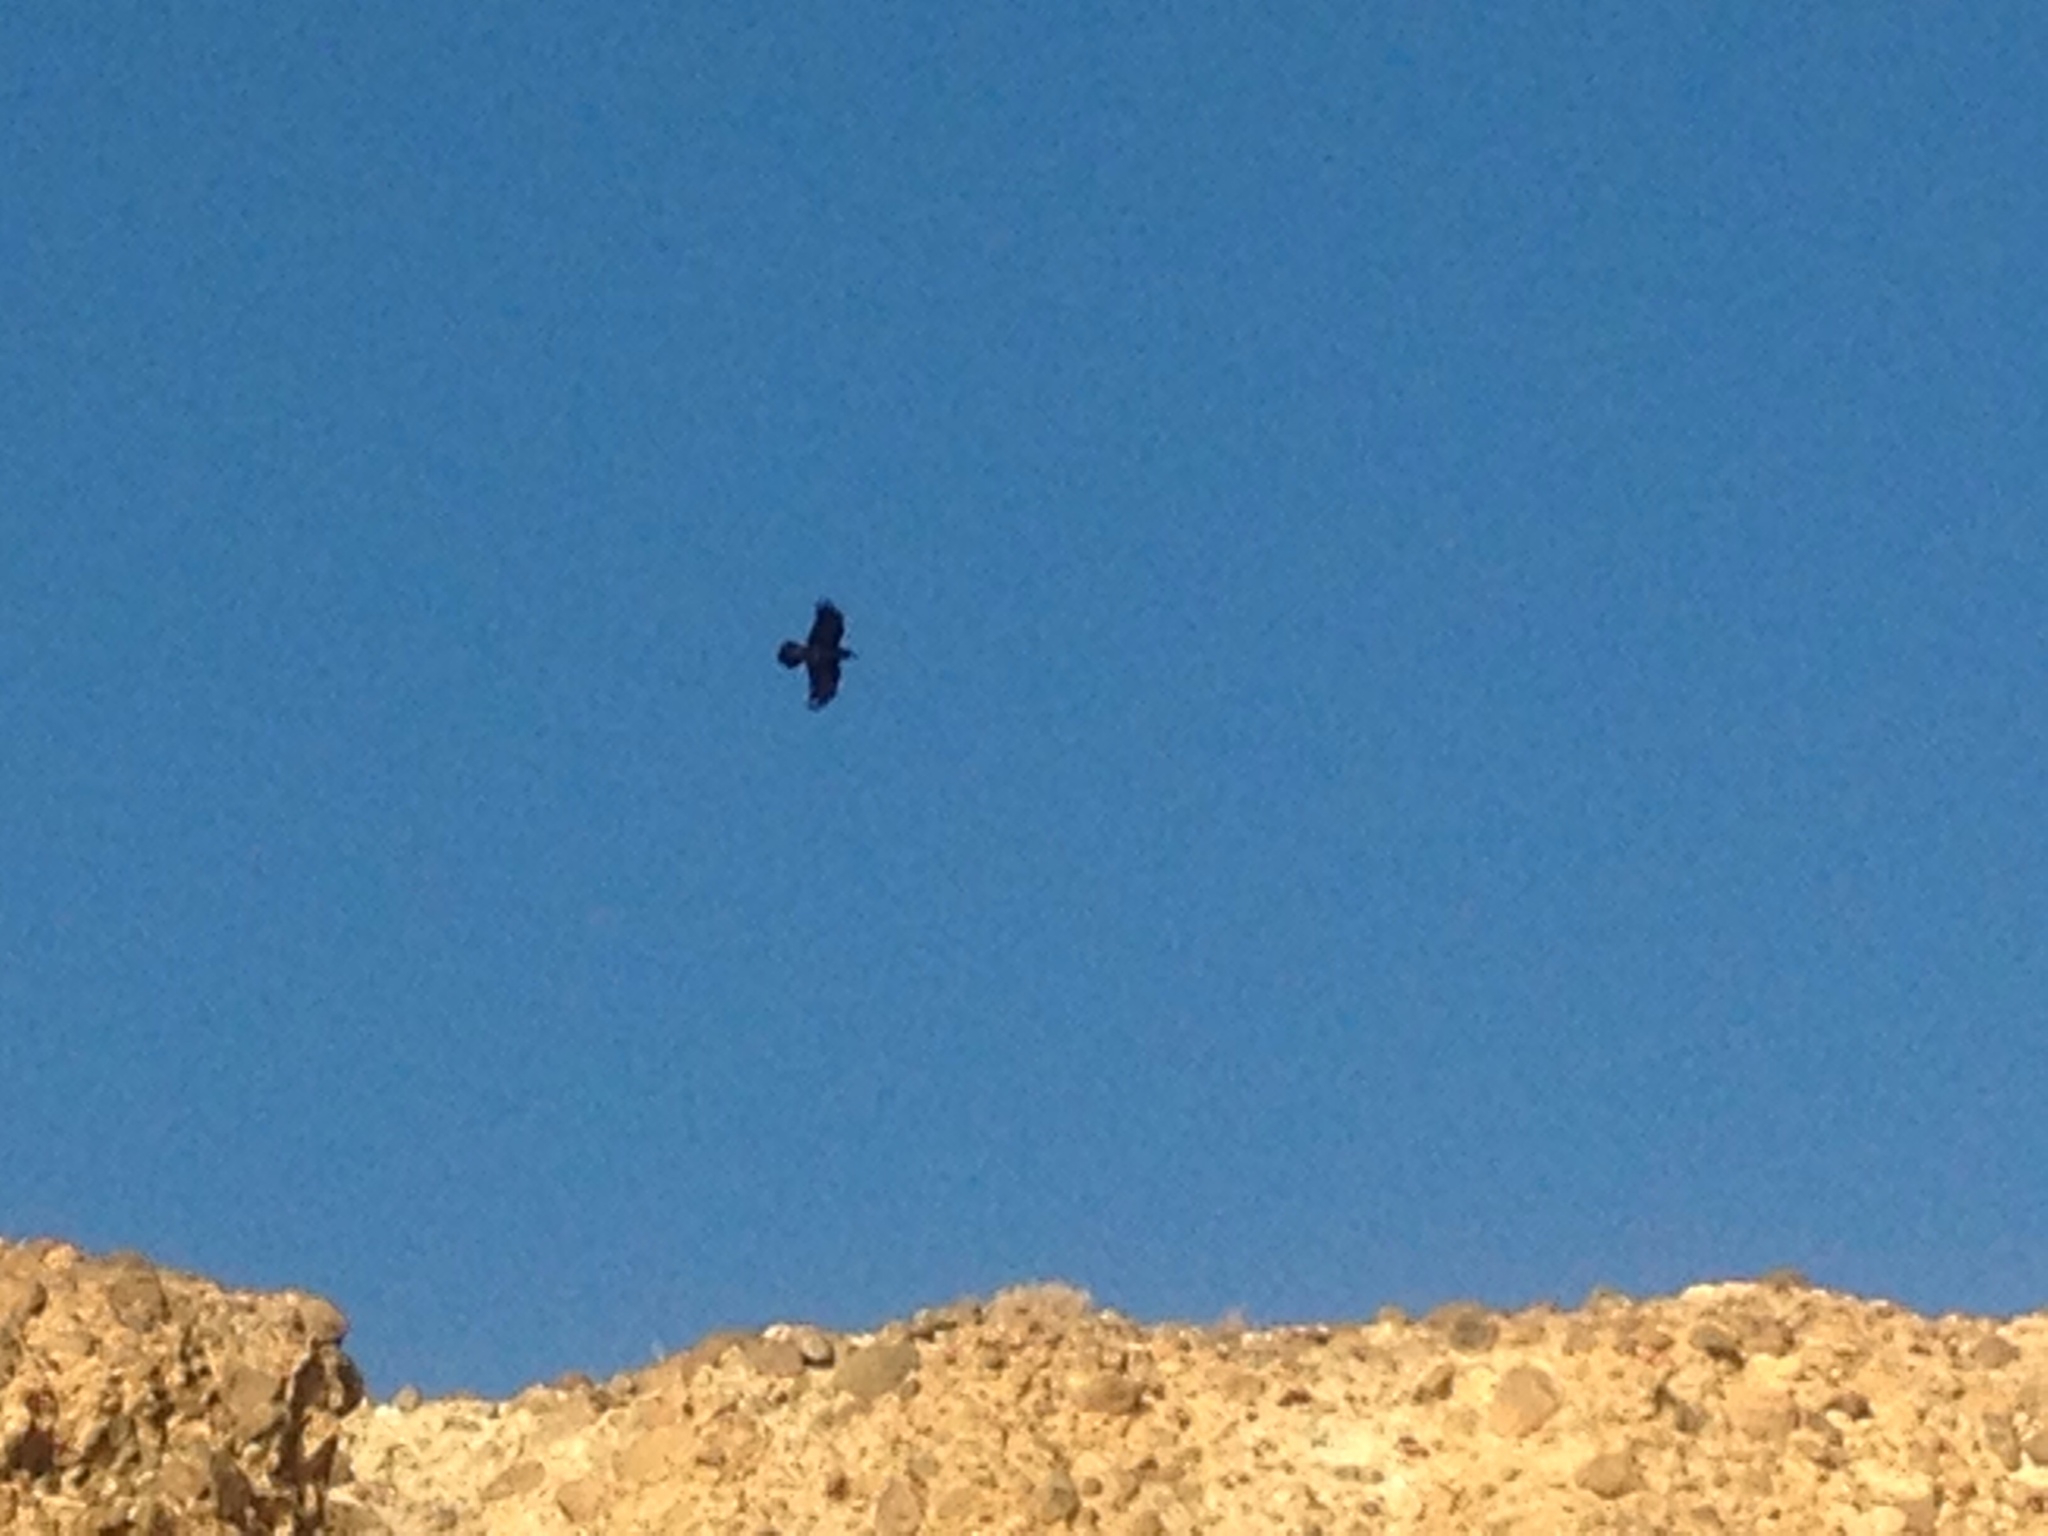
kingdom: Animalia
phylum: Chordata
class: Aves
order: Passeriformes
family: Corvidae
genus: Corvus
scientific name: Corvus corax
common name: Common raven
